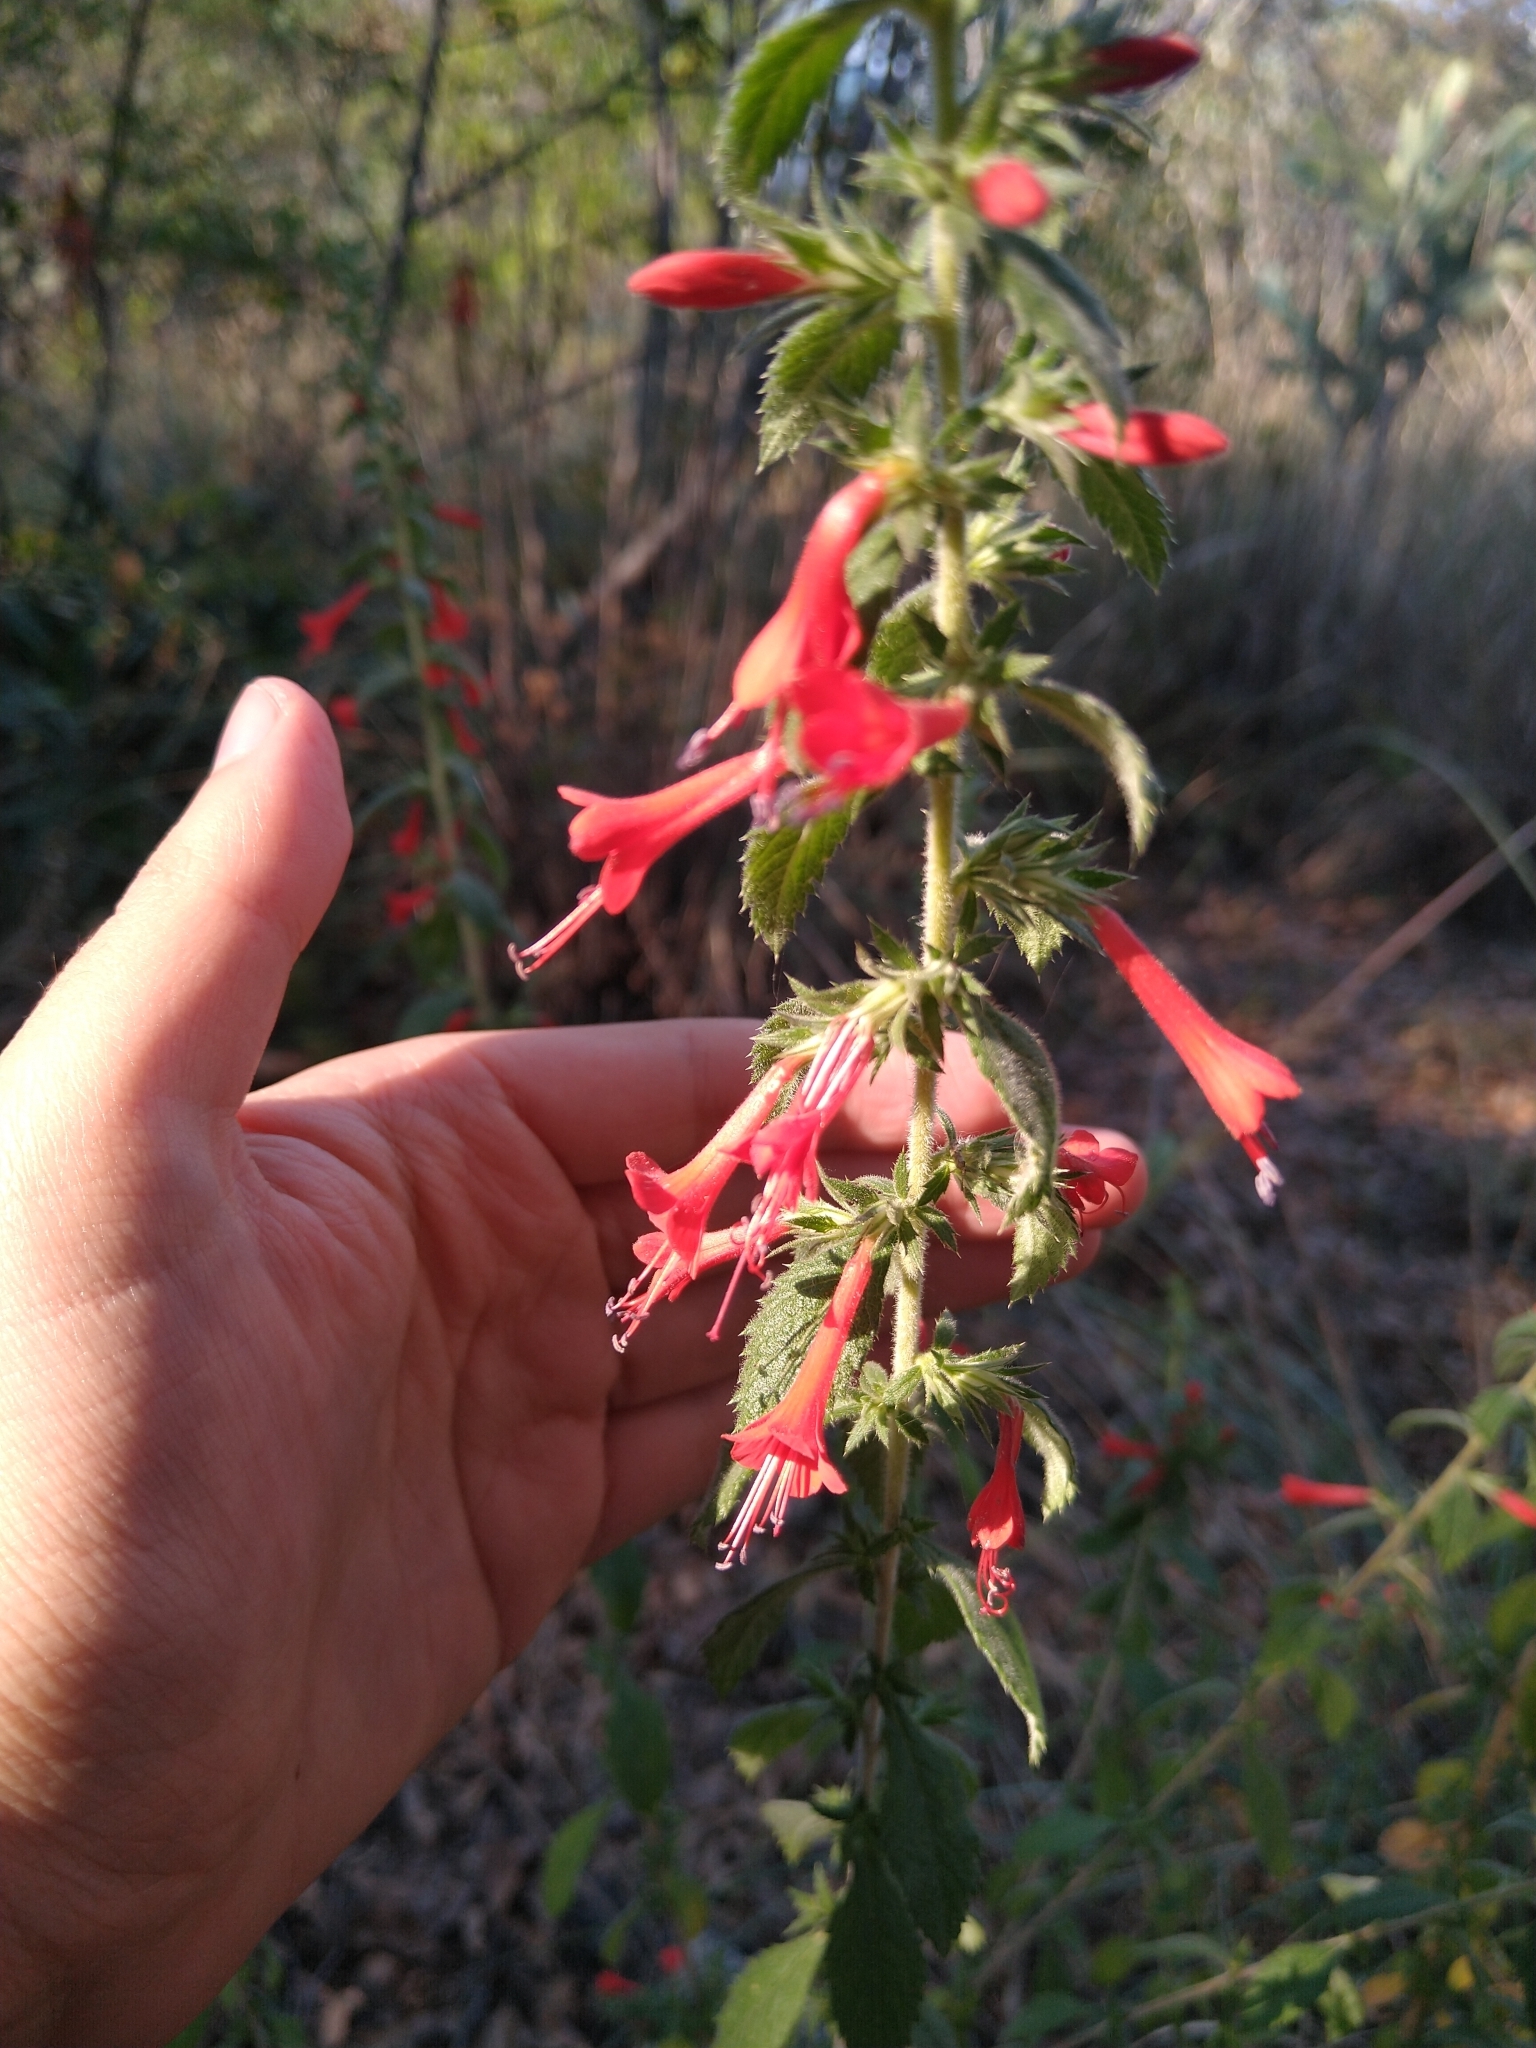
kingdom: Plantae
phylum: Tracheophyta
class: Magnoliopsida
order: Ericales
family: Polemoniaceae
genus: Loeselia
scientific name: Loeselia mexicana
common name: Mexican false calico
